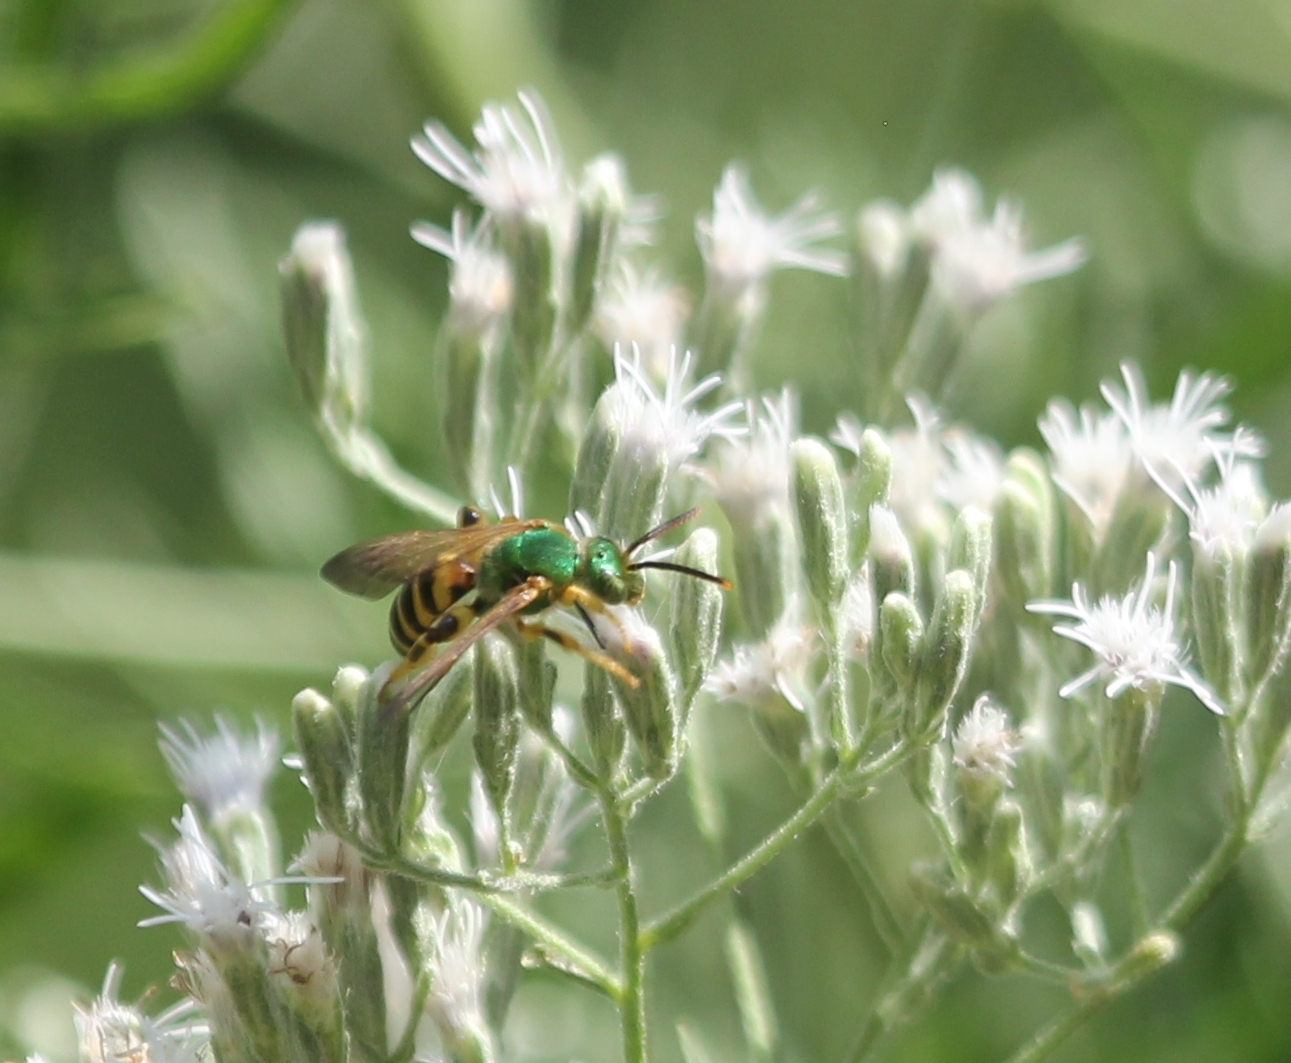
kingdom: Animalia
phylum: Arthropoda
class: Insecta
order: Hymenoptera
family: Halictidae
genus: Agapostemon
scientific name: Agapostemon splendens
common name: Brown-winged striped sweat bee
